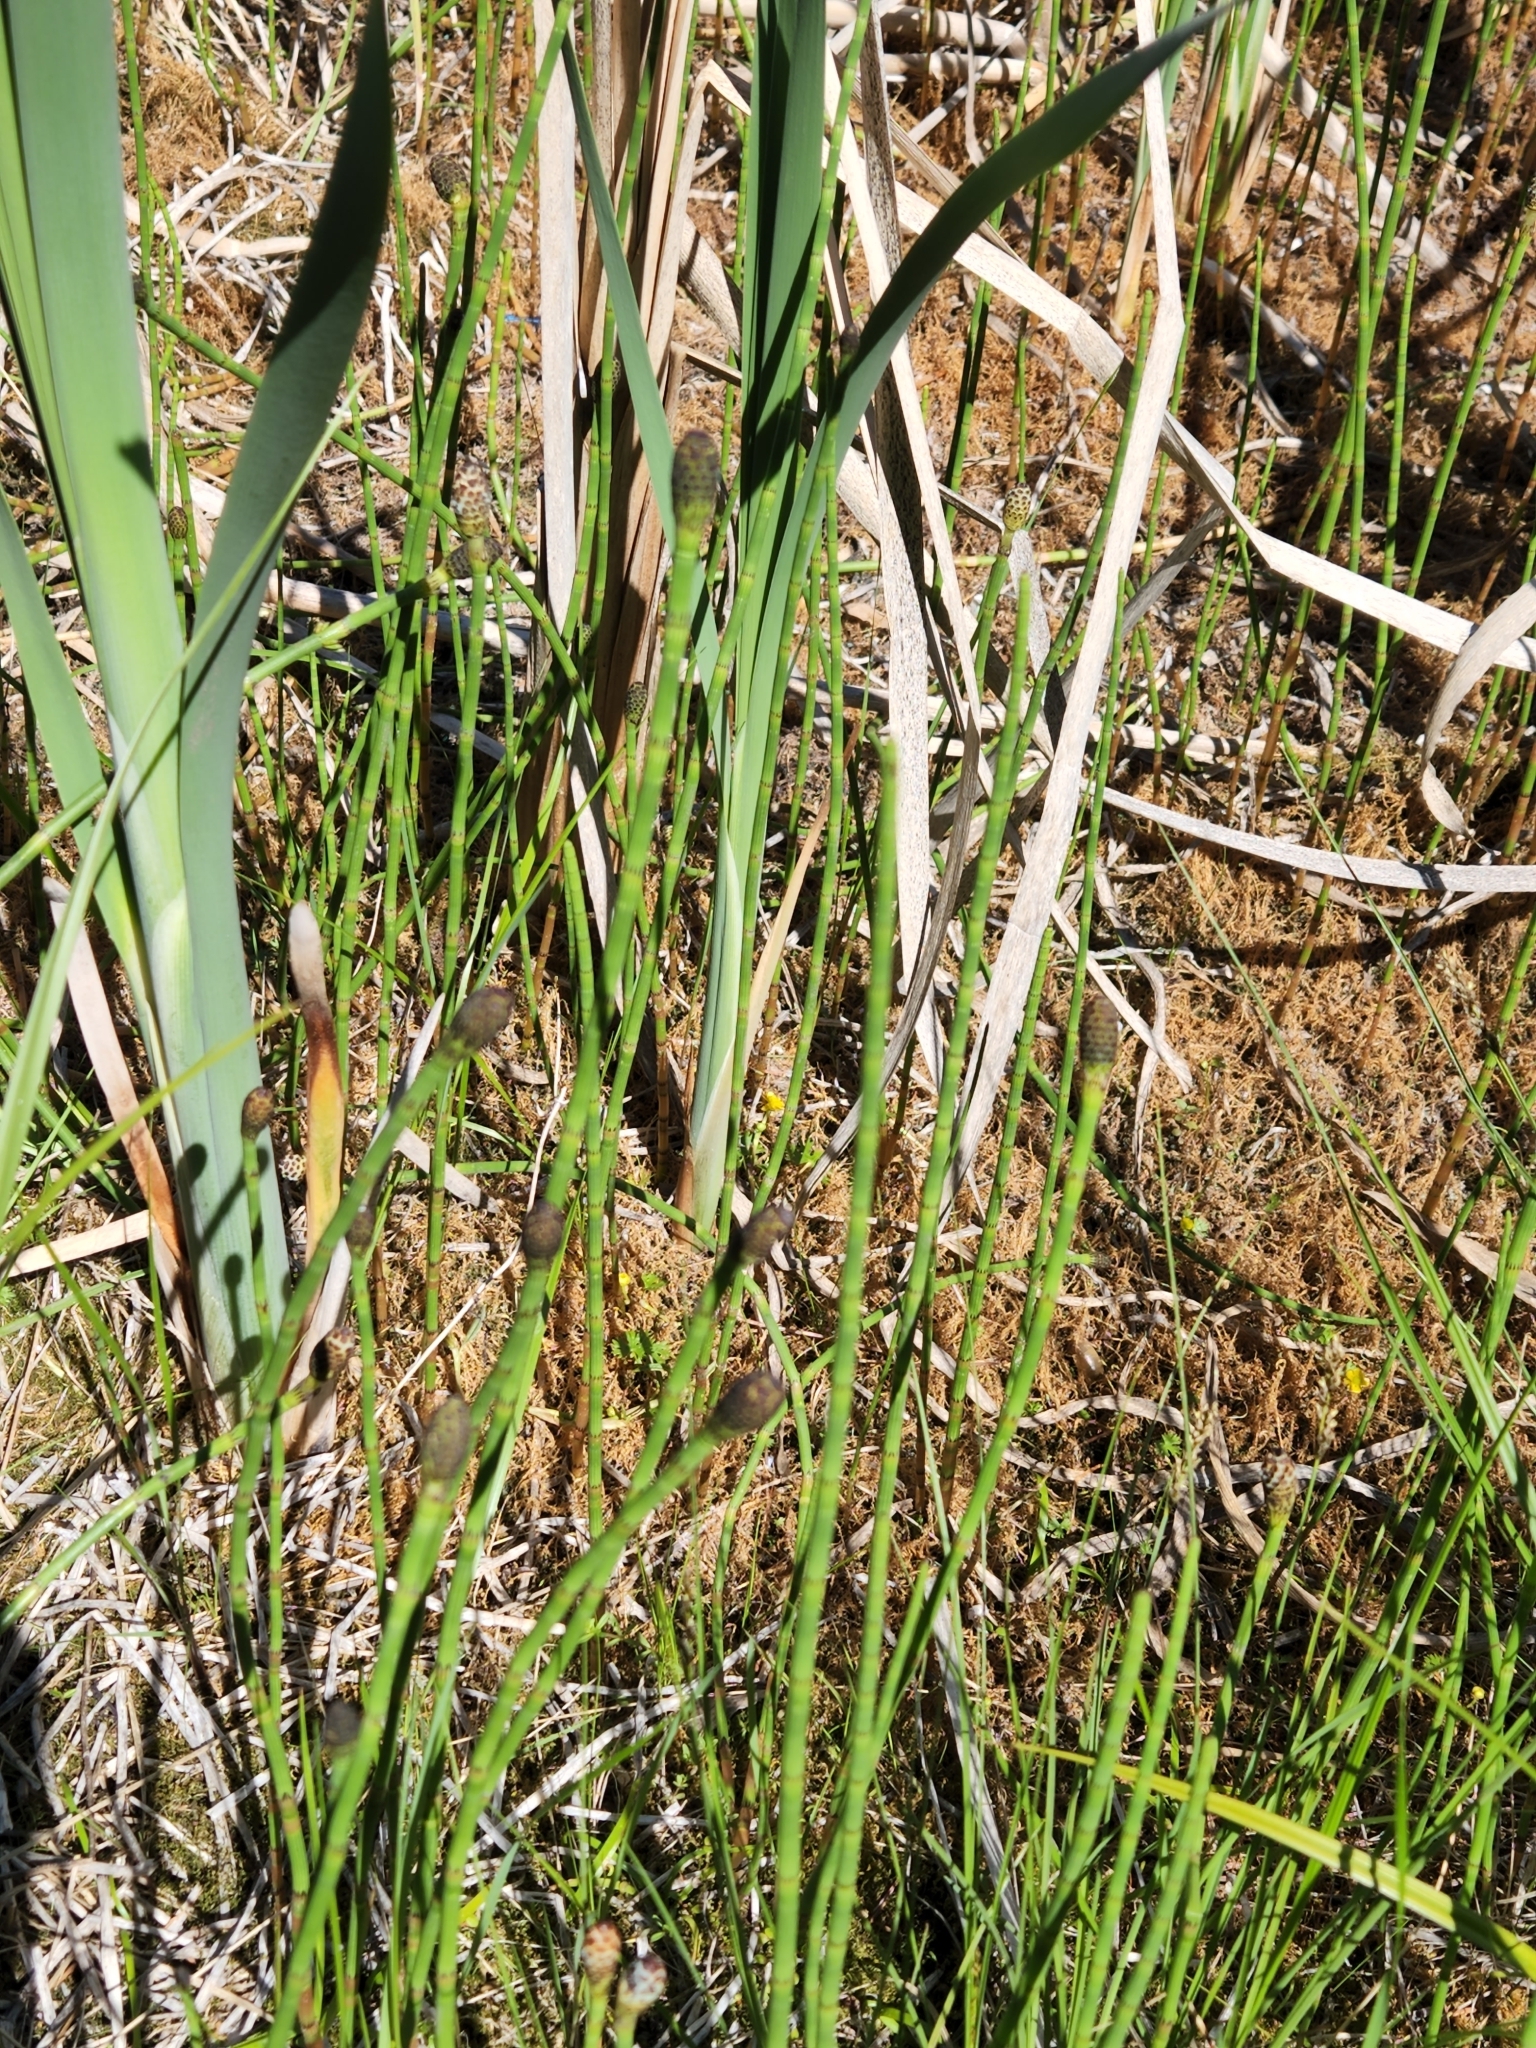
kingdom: Plantae
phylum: Tracheophyta
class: Polypodiopsida
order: Equisetales
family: Equisetaceae
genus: Equisetum
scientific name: Equisetum fluviatile
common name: Water horsetail
